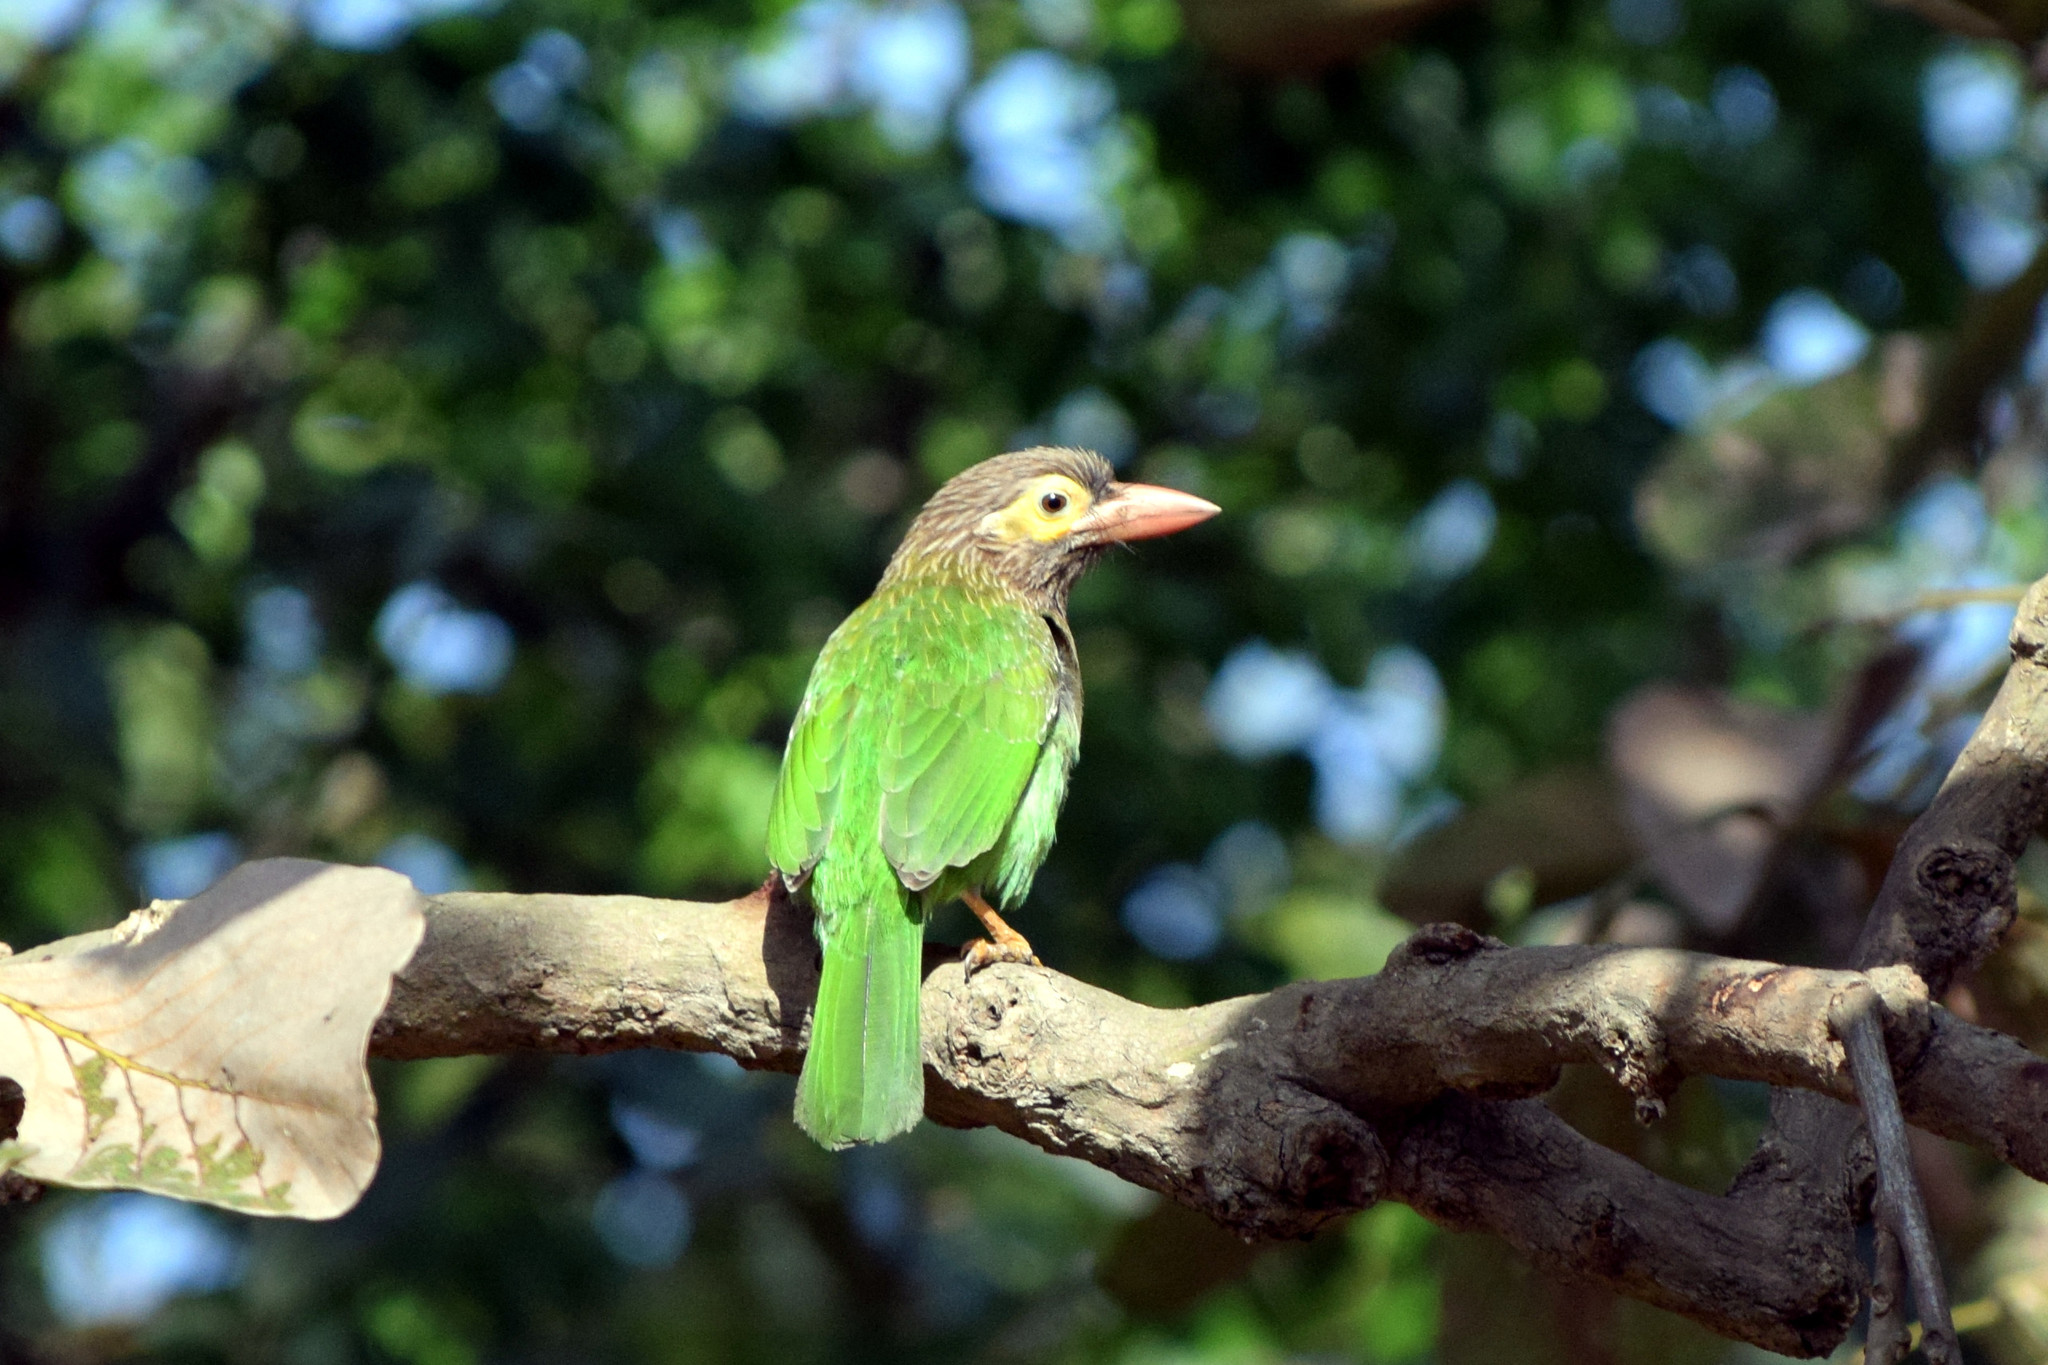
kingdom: Animalia
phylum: Chordata
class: Aves
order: Piciformes
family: Megalaimidae
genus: Psilopogon
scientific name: Psilopogon lineatus
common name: Lineated barbet
